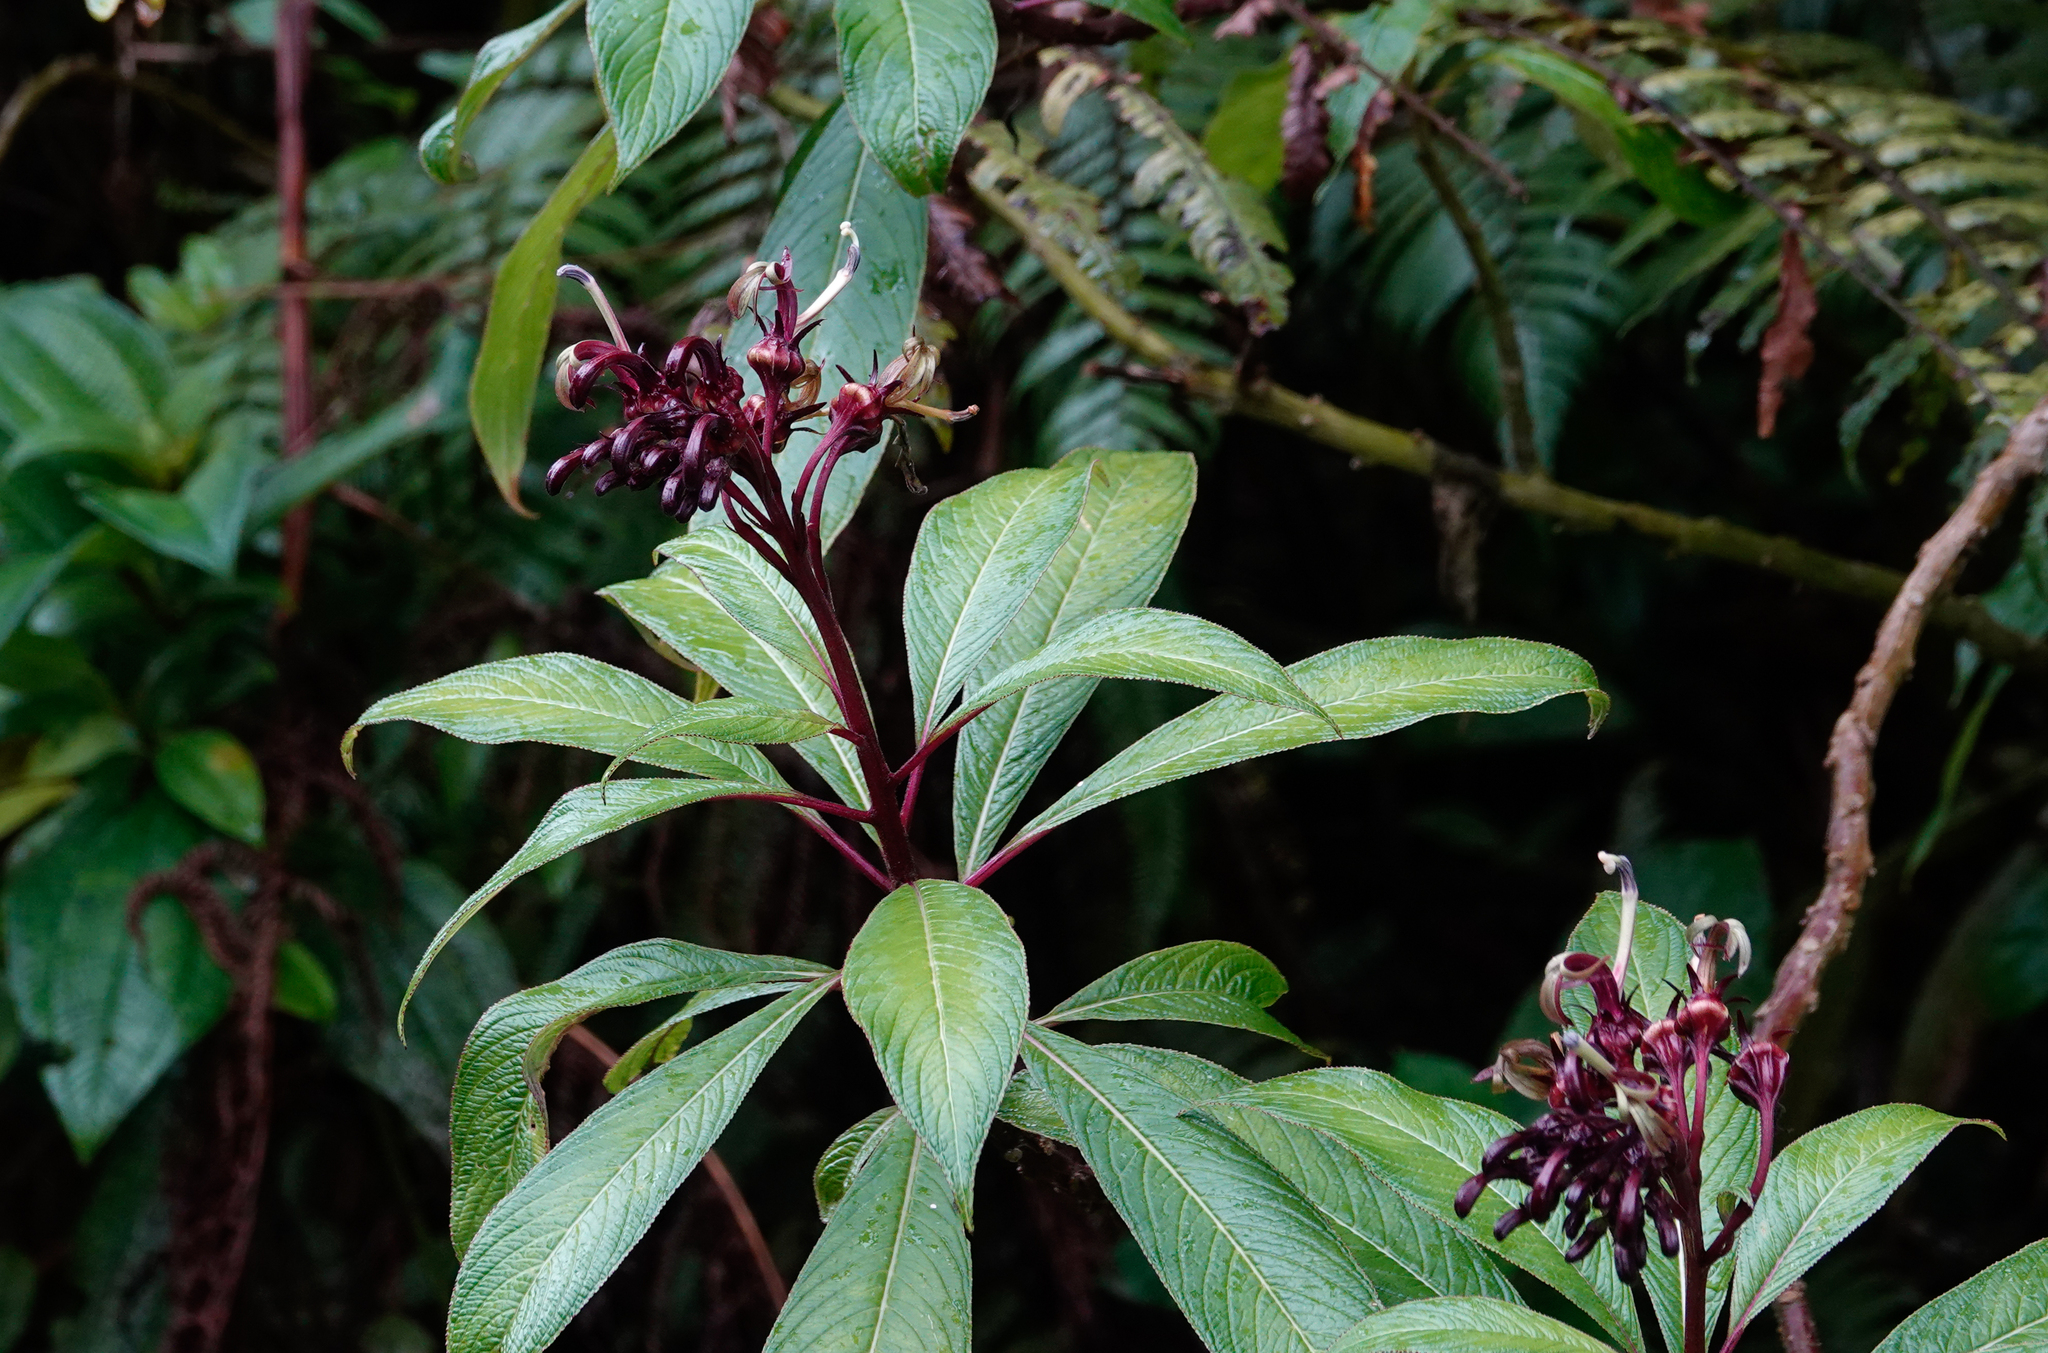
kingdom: Plantae
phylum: Tracheophyta
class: Magnoliopsida
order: Asterales
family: Campanulaceae
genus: Lobelia
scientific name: Lobelia portoricensis
